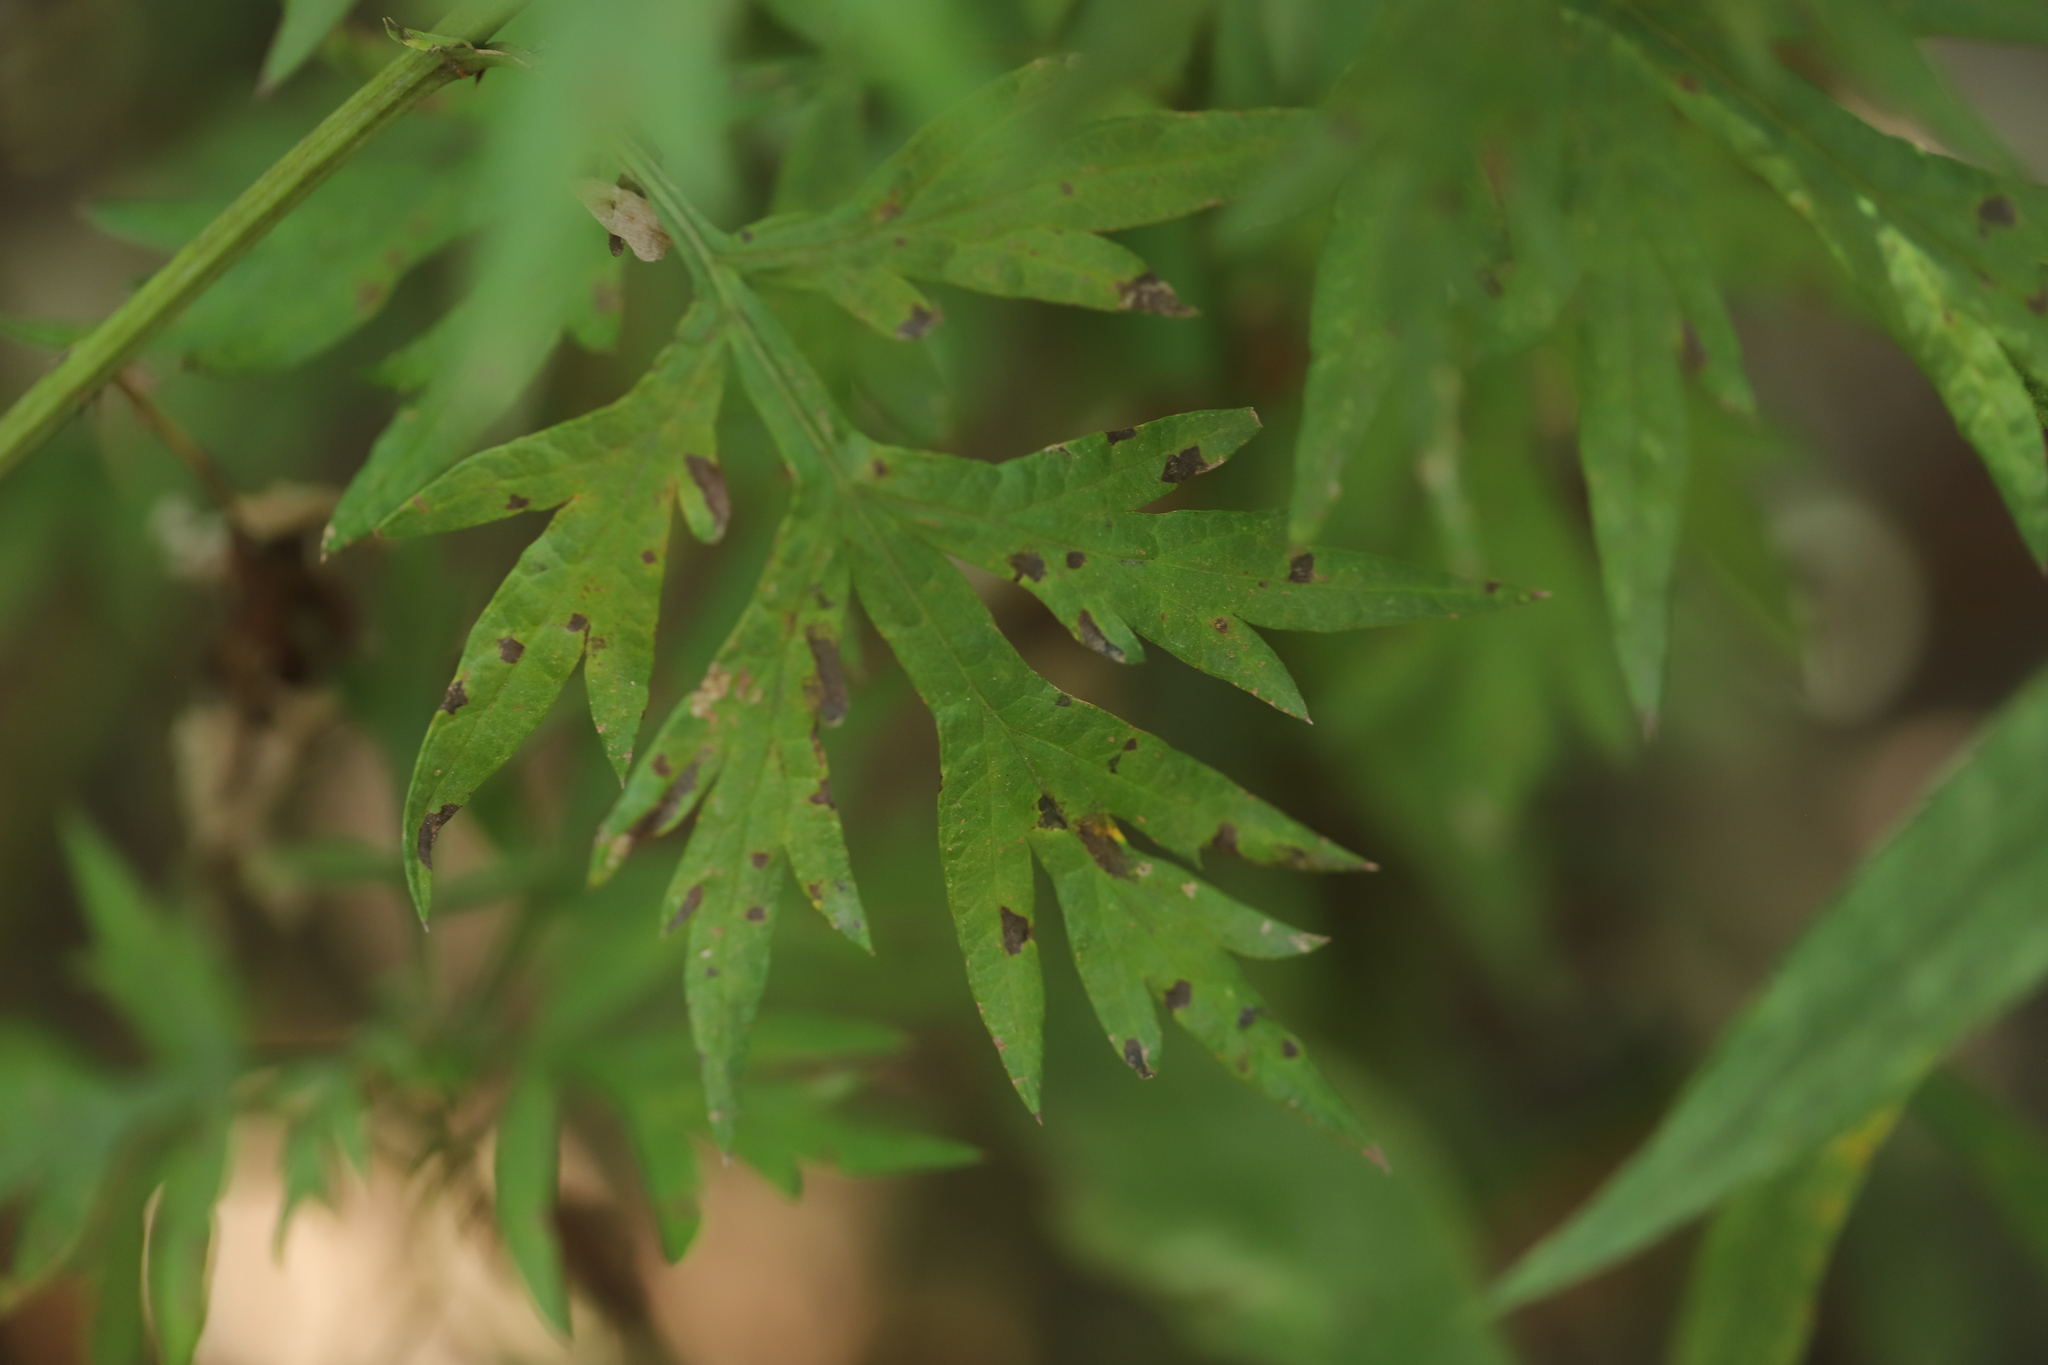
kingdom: Plantae
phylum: Tracheophyta
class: Magnoliopsida
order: Asterales
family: Asteraceae
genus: Artemisia
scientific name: Artemisia vulgaris
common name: Mugwort
